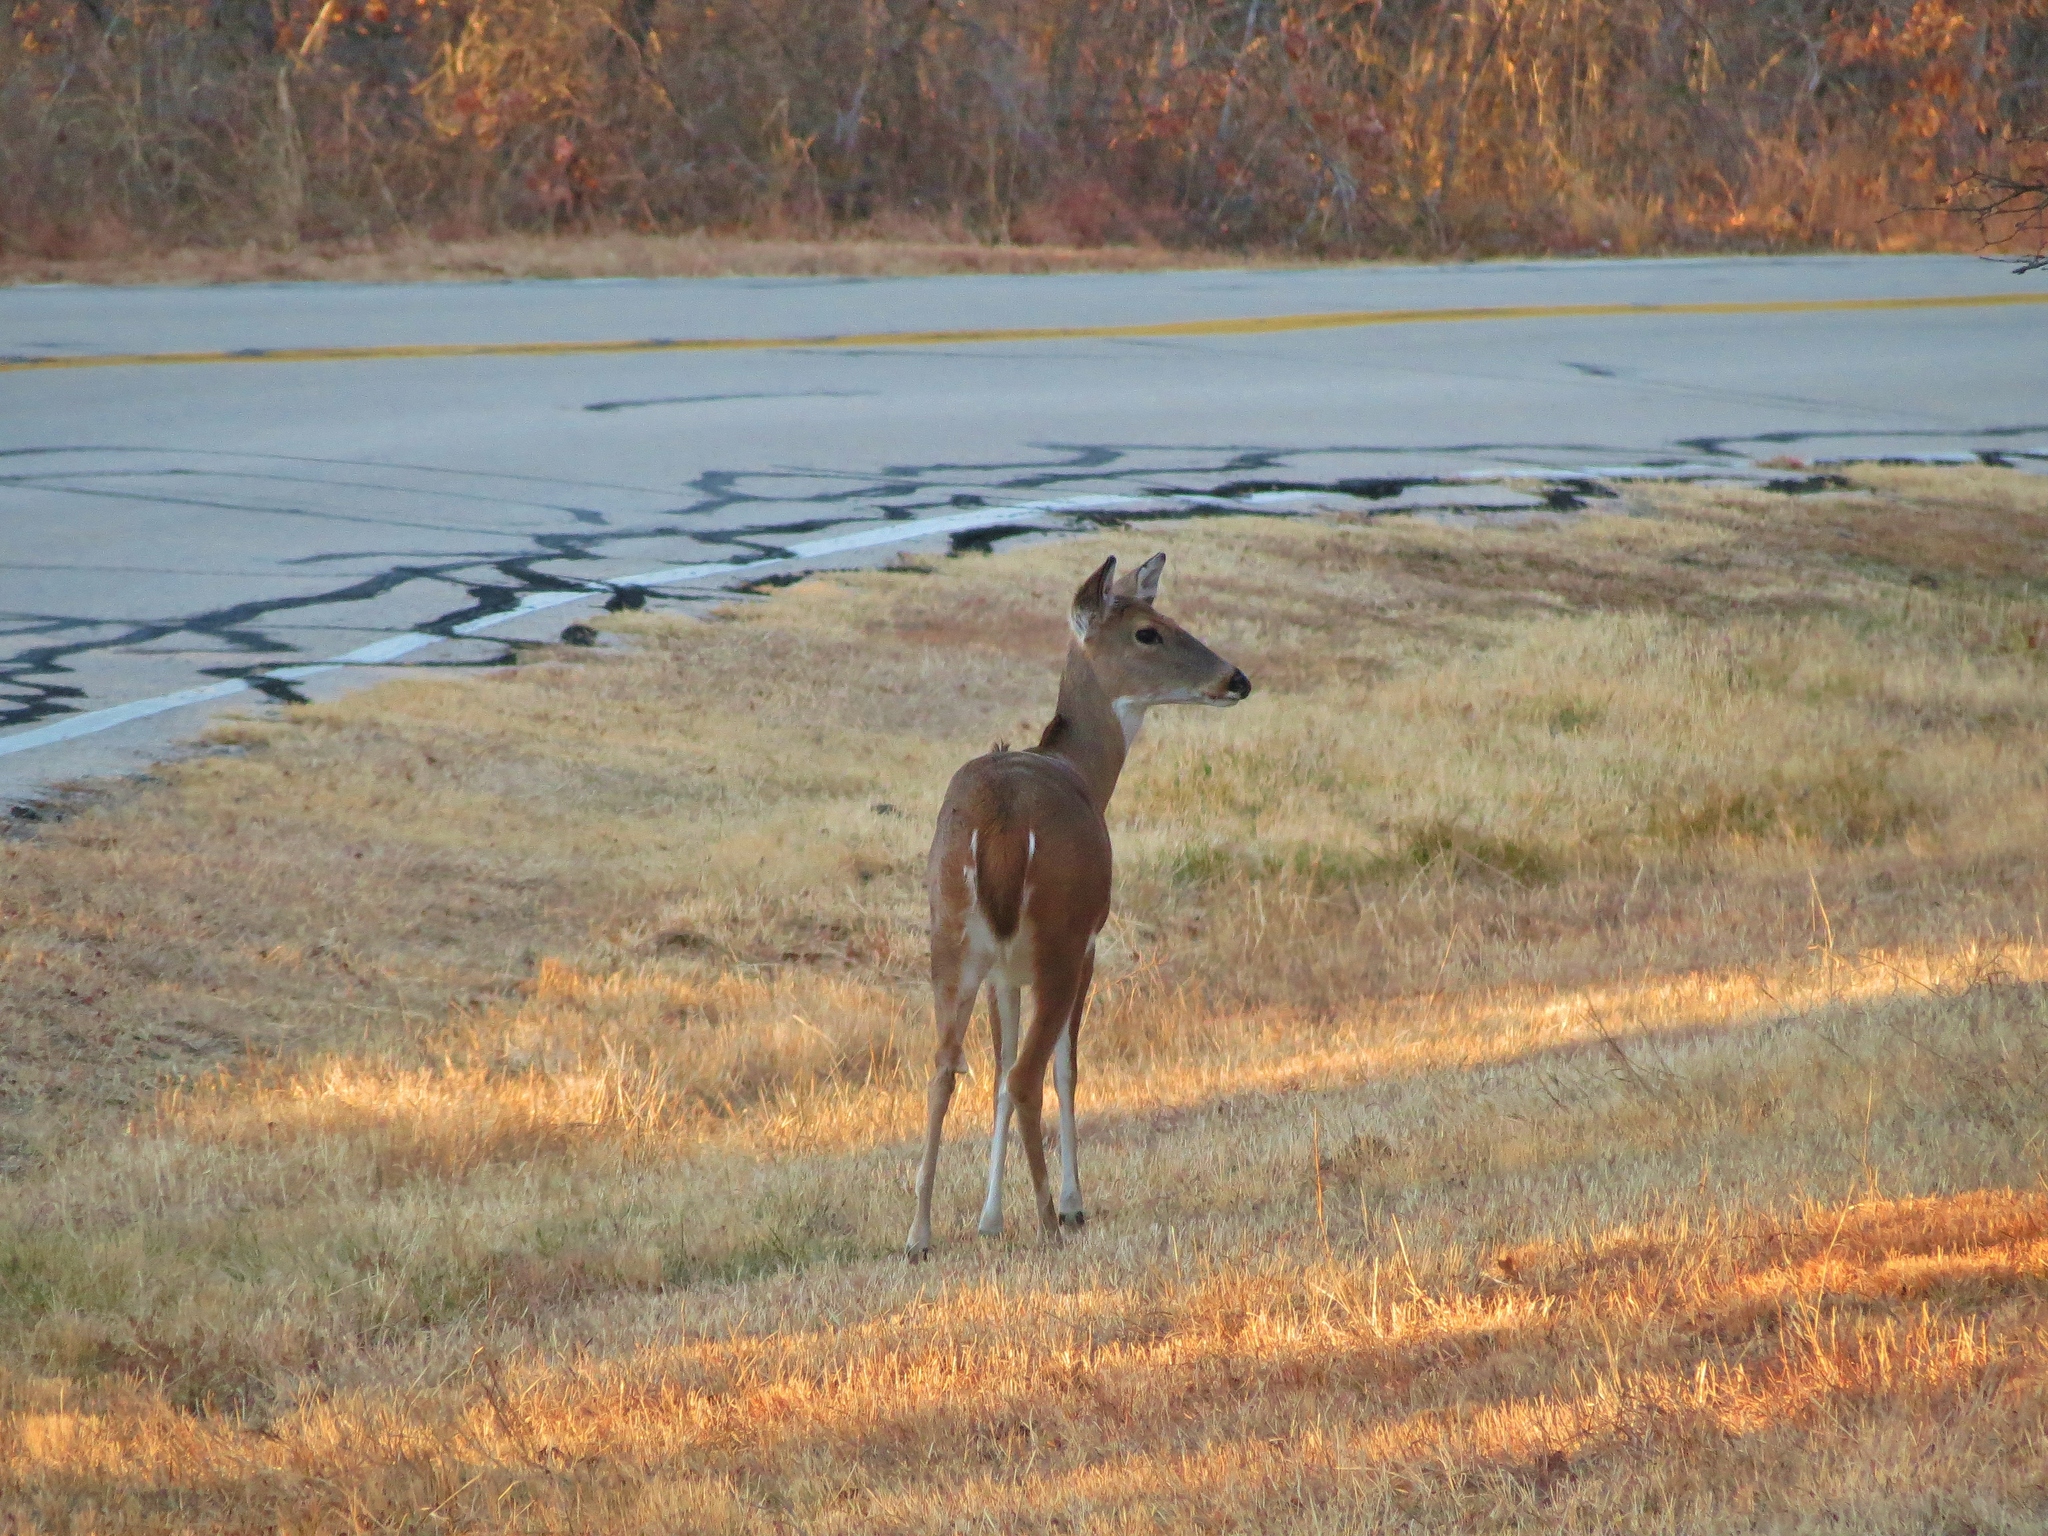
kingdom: Animalia
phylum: Chordata
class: Mammalia
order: Artiodactyla
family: Cervidae
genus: Odocoileus
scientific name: Odocoileus virginianus
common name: White-tailed deer
